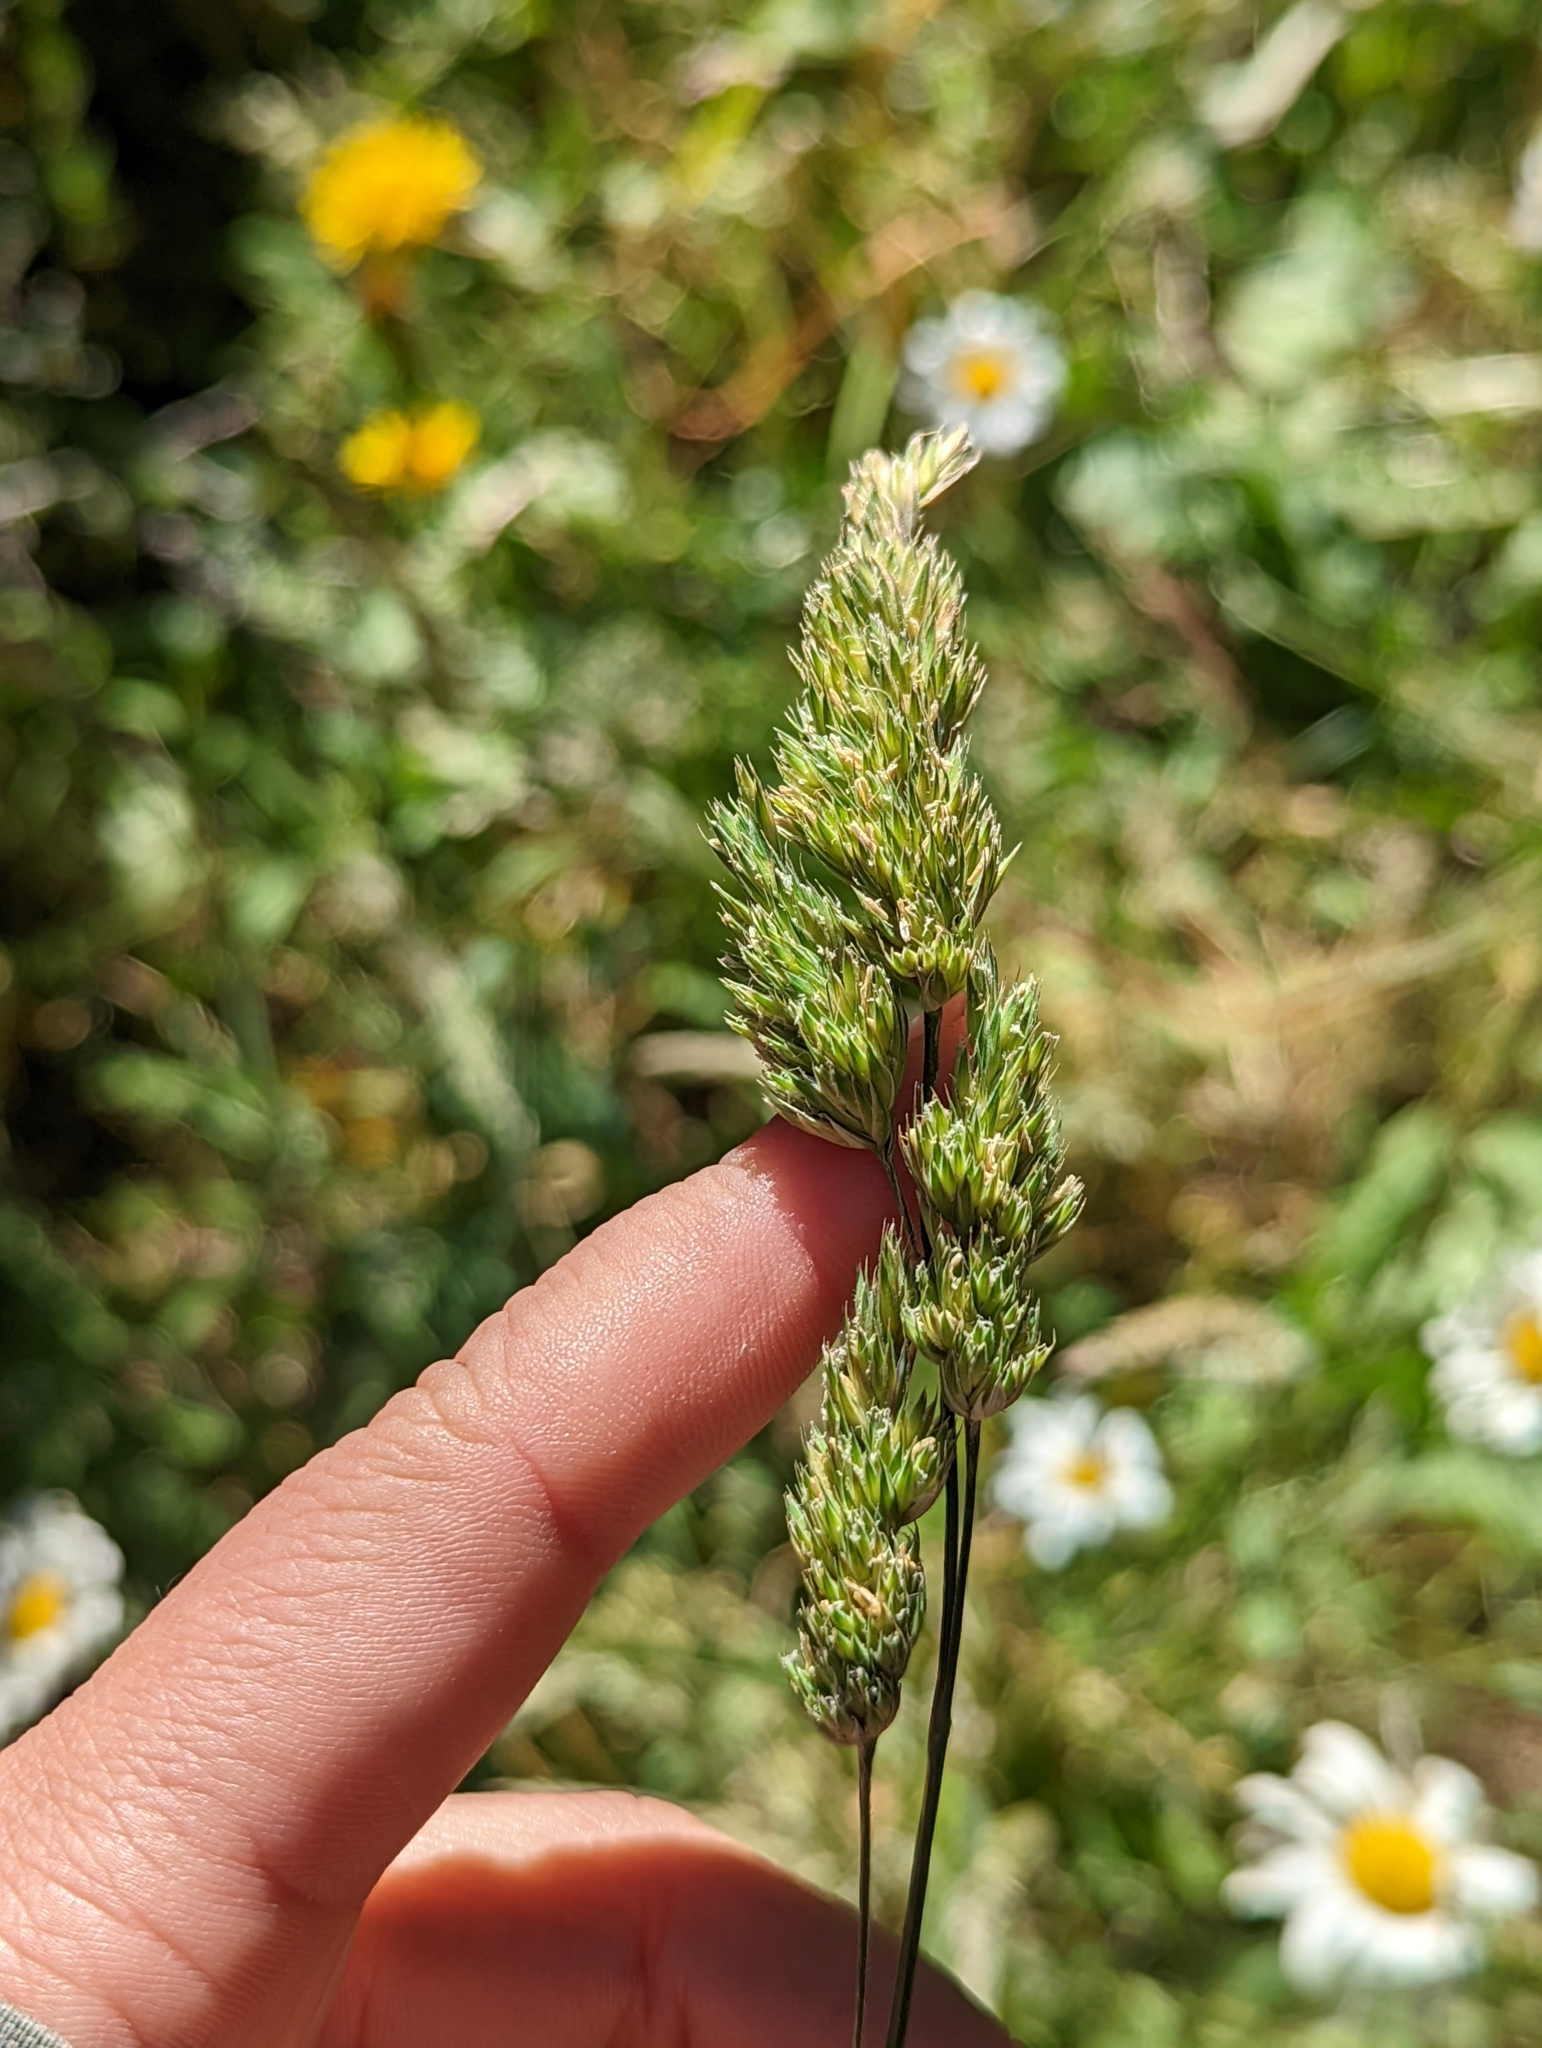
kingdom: Plantae
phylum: Tracheophyta
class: Liliopsida
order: Poales
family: Poaceae
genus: Dactylis
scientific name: Dactylis glomerata
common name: Orchardgrass
